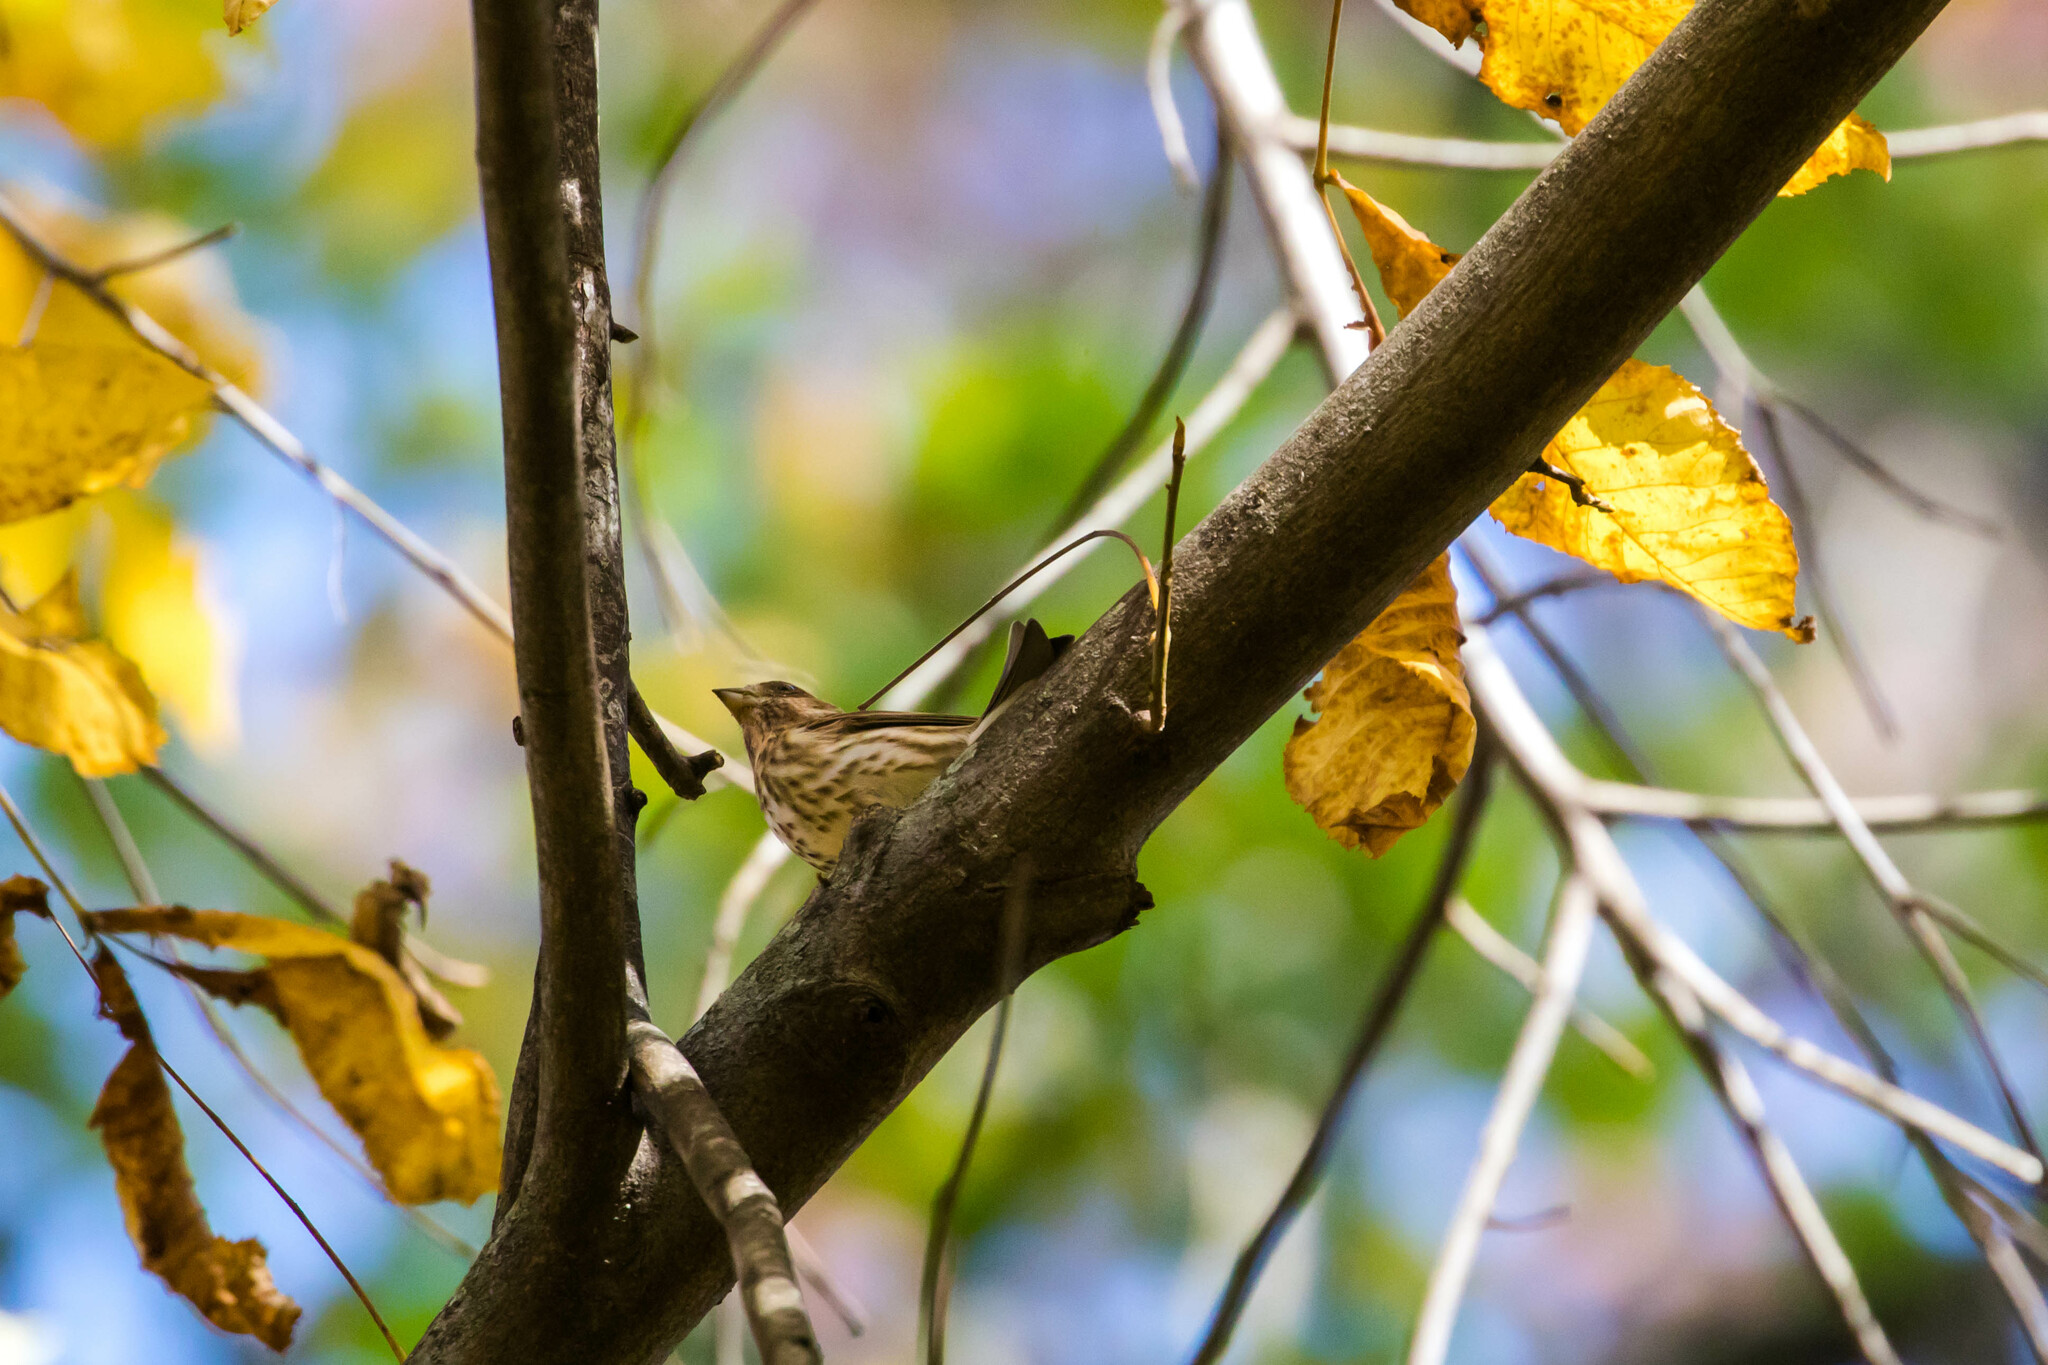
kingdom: Animalia
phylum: Chordata
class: Aves
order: Passeriformes
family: Fringillidae
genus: Haemorhous
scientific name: Haemorhous purpureus
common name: Purple finch
